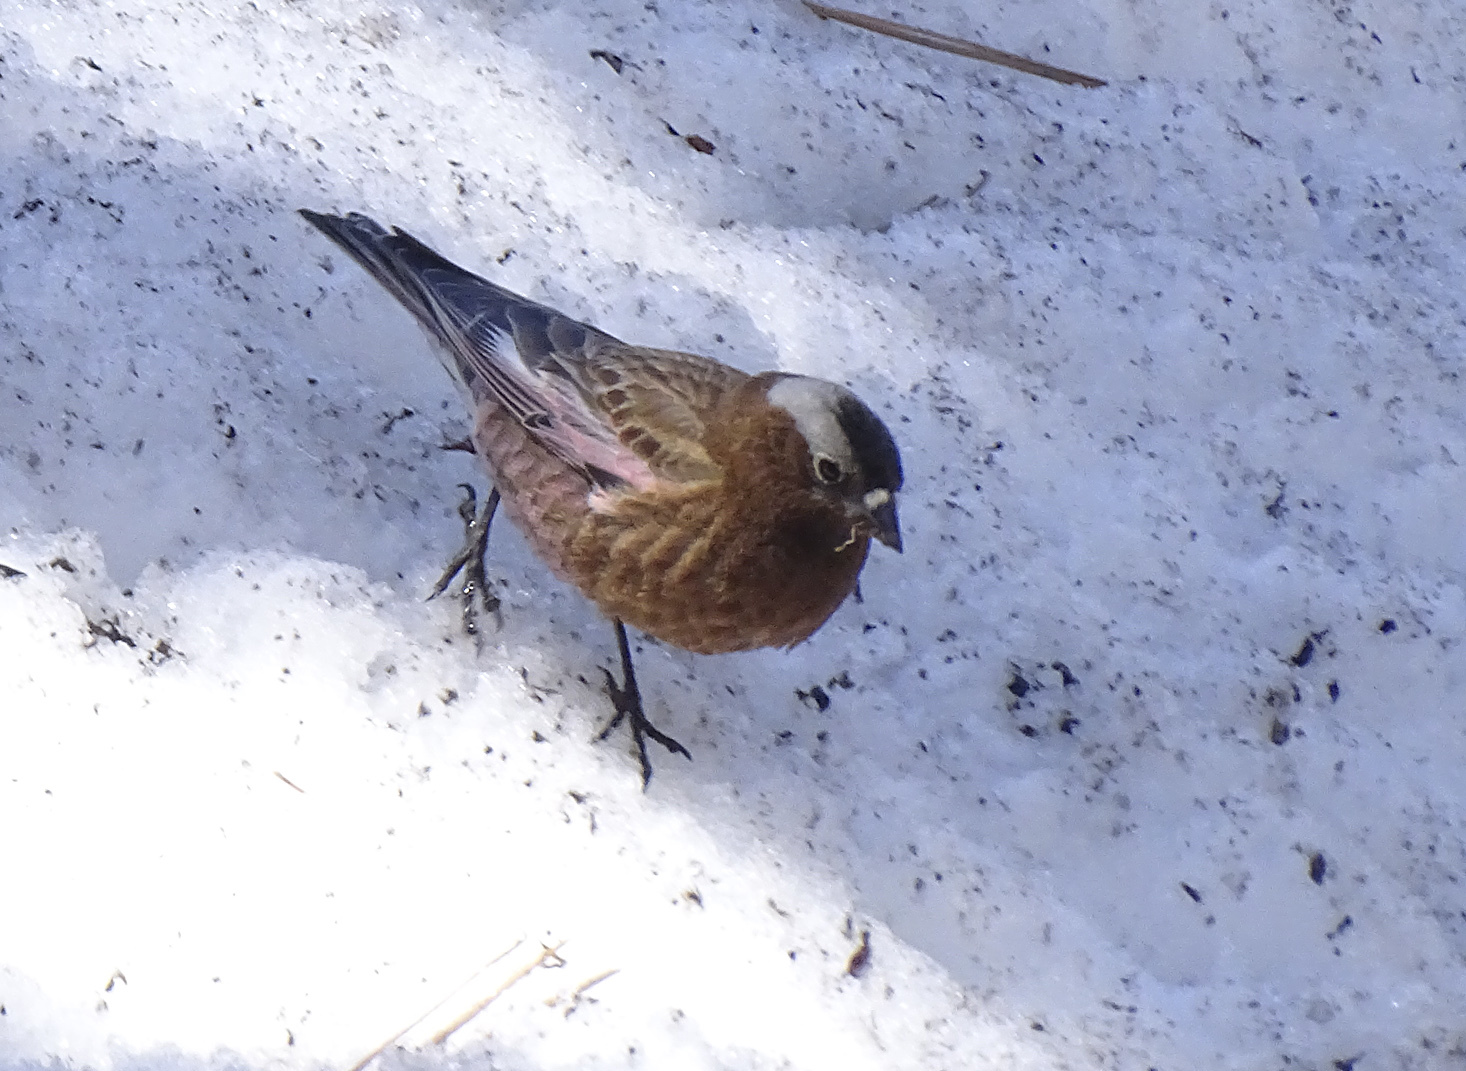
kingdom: Animalia
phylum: Chordata
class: Aves
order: Passeriformes
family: Fringillidae
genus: Leucosticte
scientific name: Leucosticte tephrocotis
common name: Gray-crowned rosy-finch
